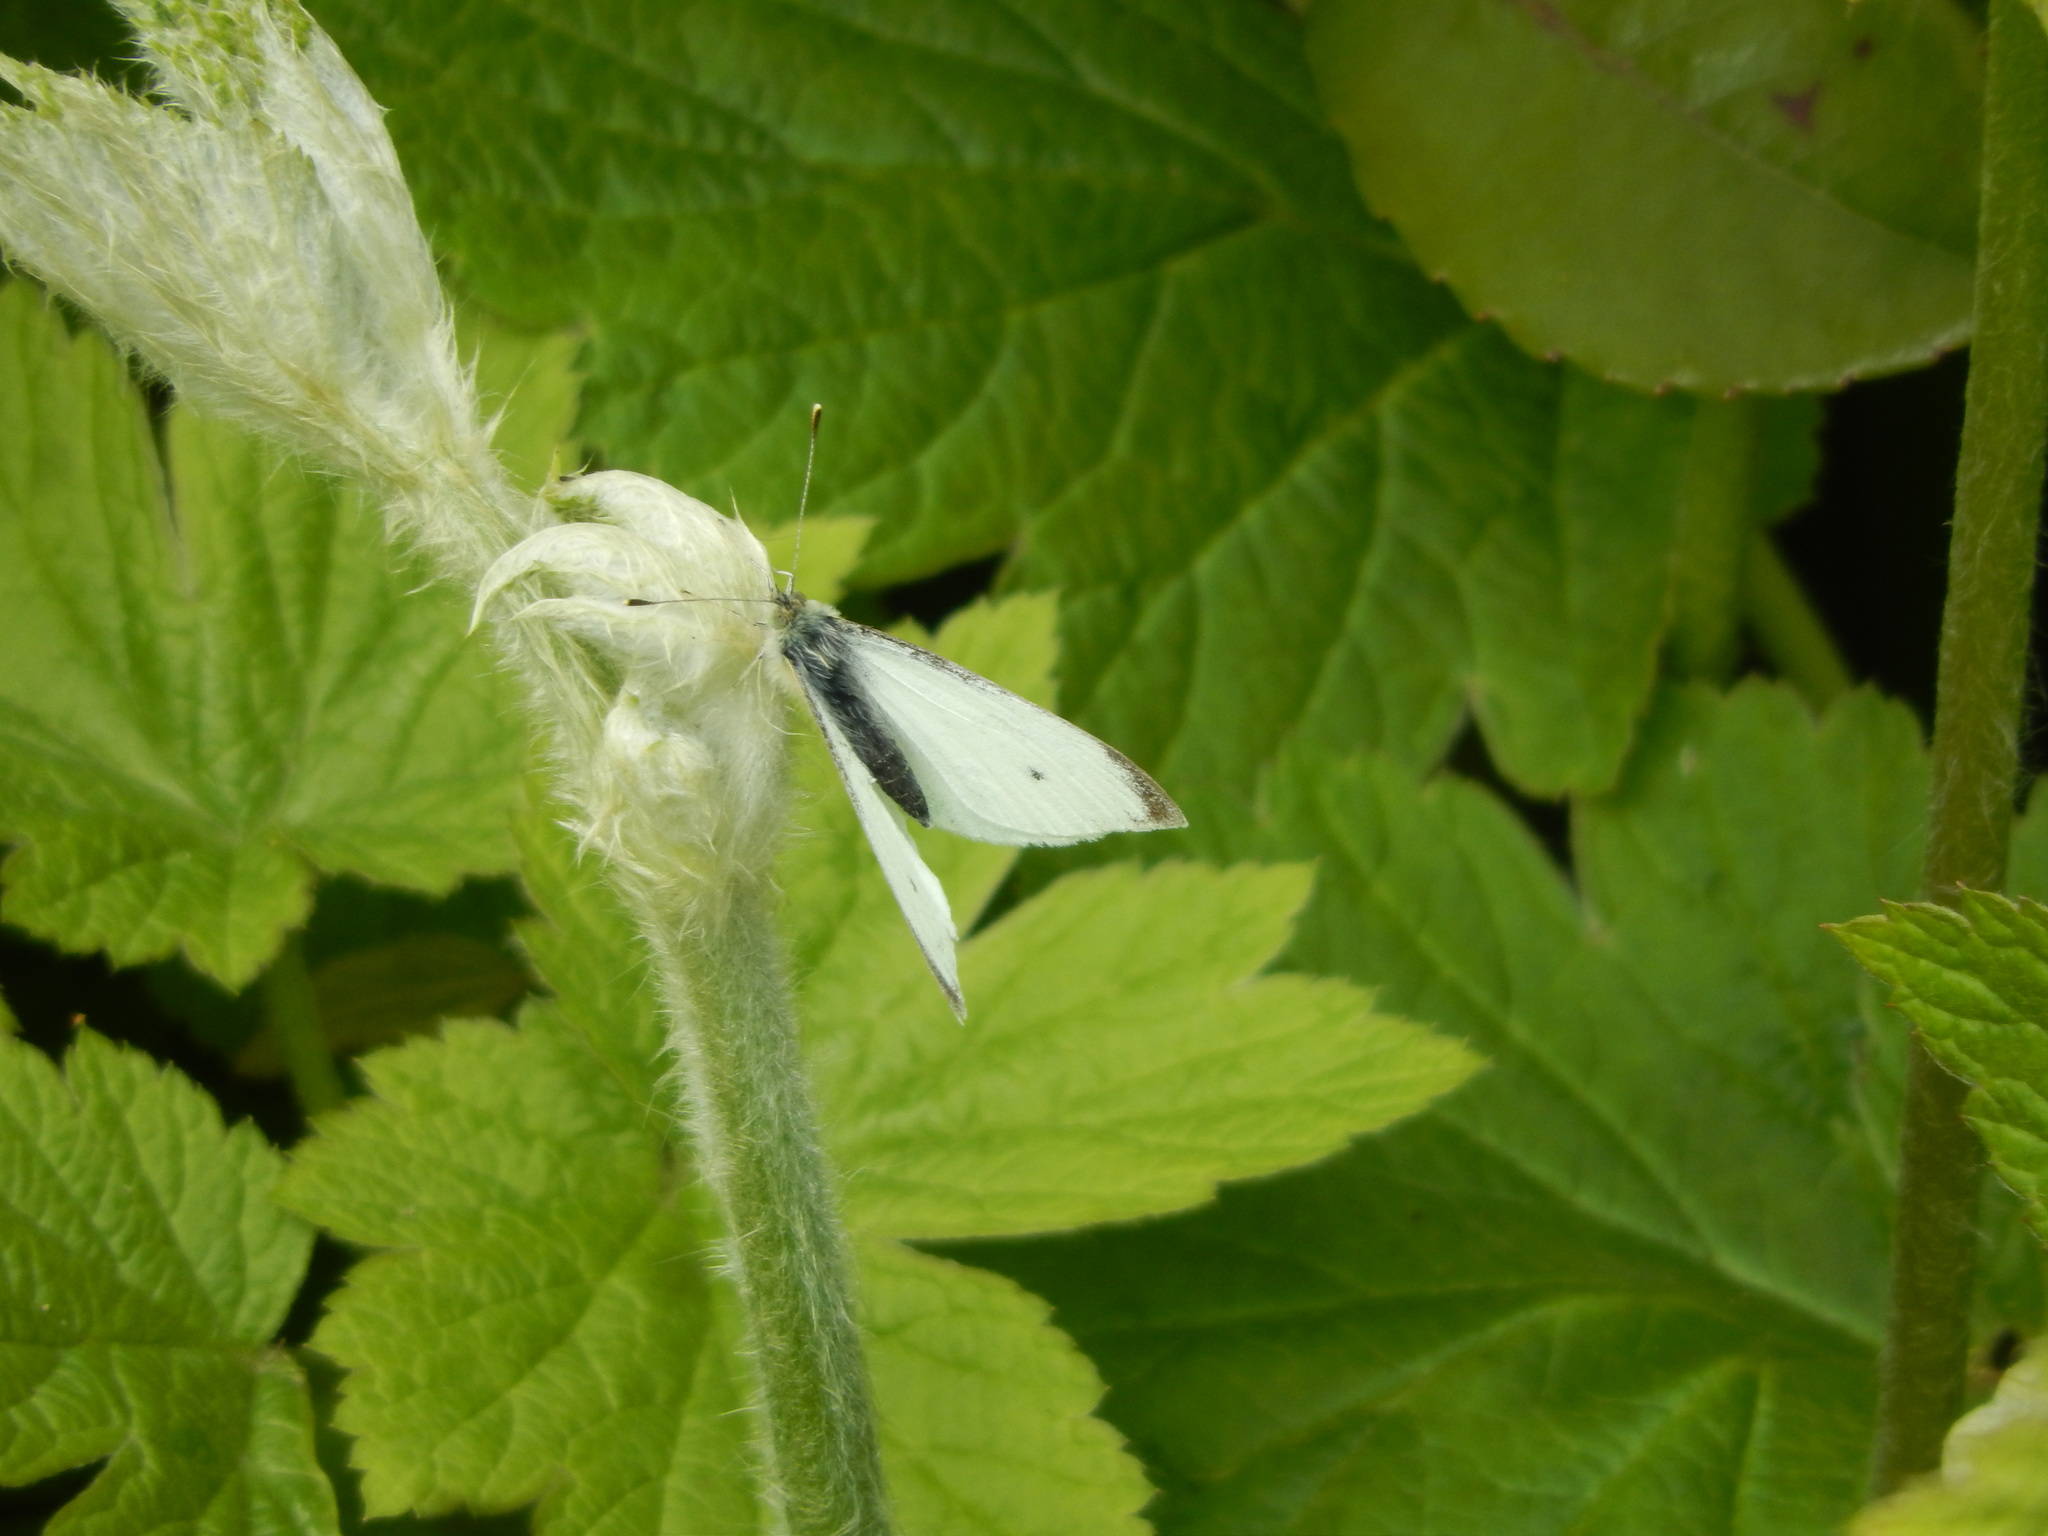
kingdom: Animalia
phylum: Arthropoda
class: Insecta
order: Lepidoptera
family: Pieridae
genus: Pieris
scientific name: Pieris rapae
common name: Small white
